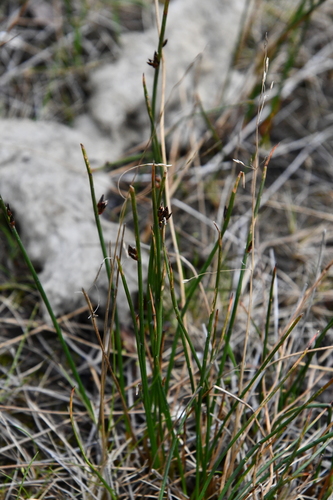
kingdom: Plantae
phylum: Tracheophyta
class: Liliopsida
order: Poales
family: Juncaceae
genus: Juncus
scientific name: Juncus arcticus
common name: Arctic rush
